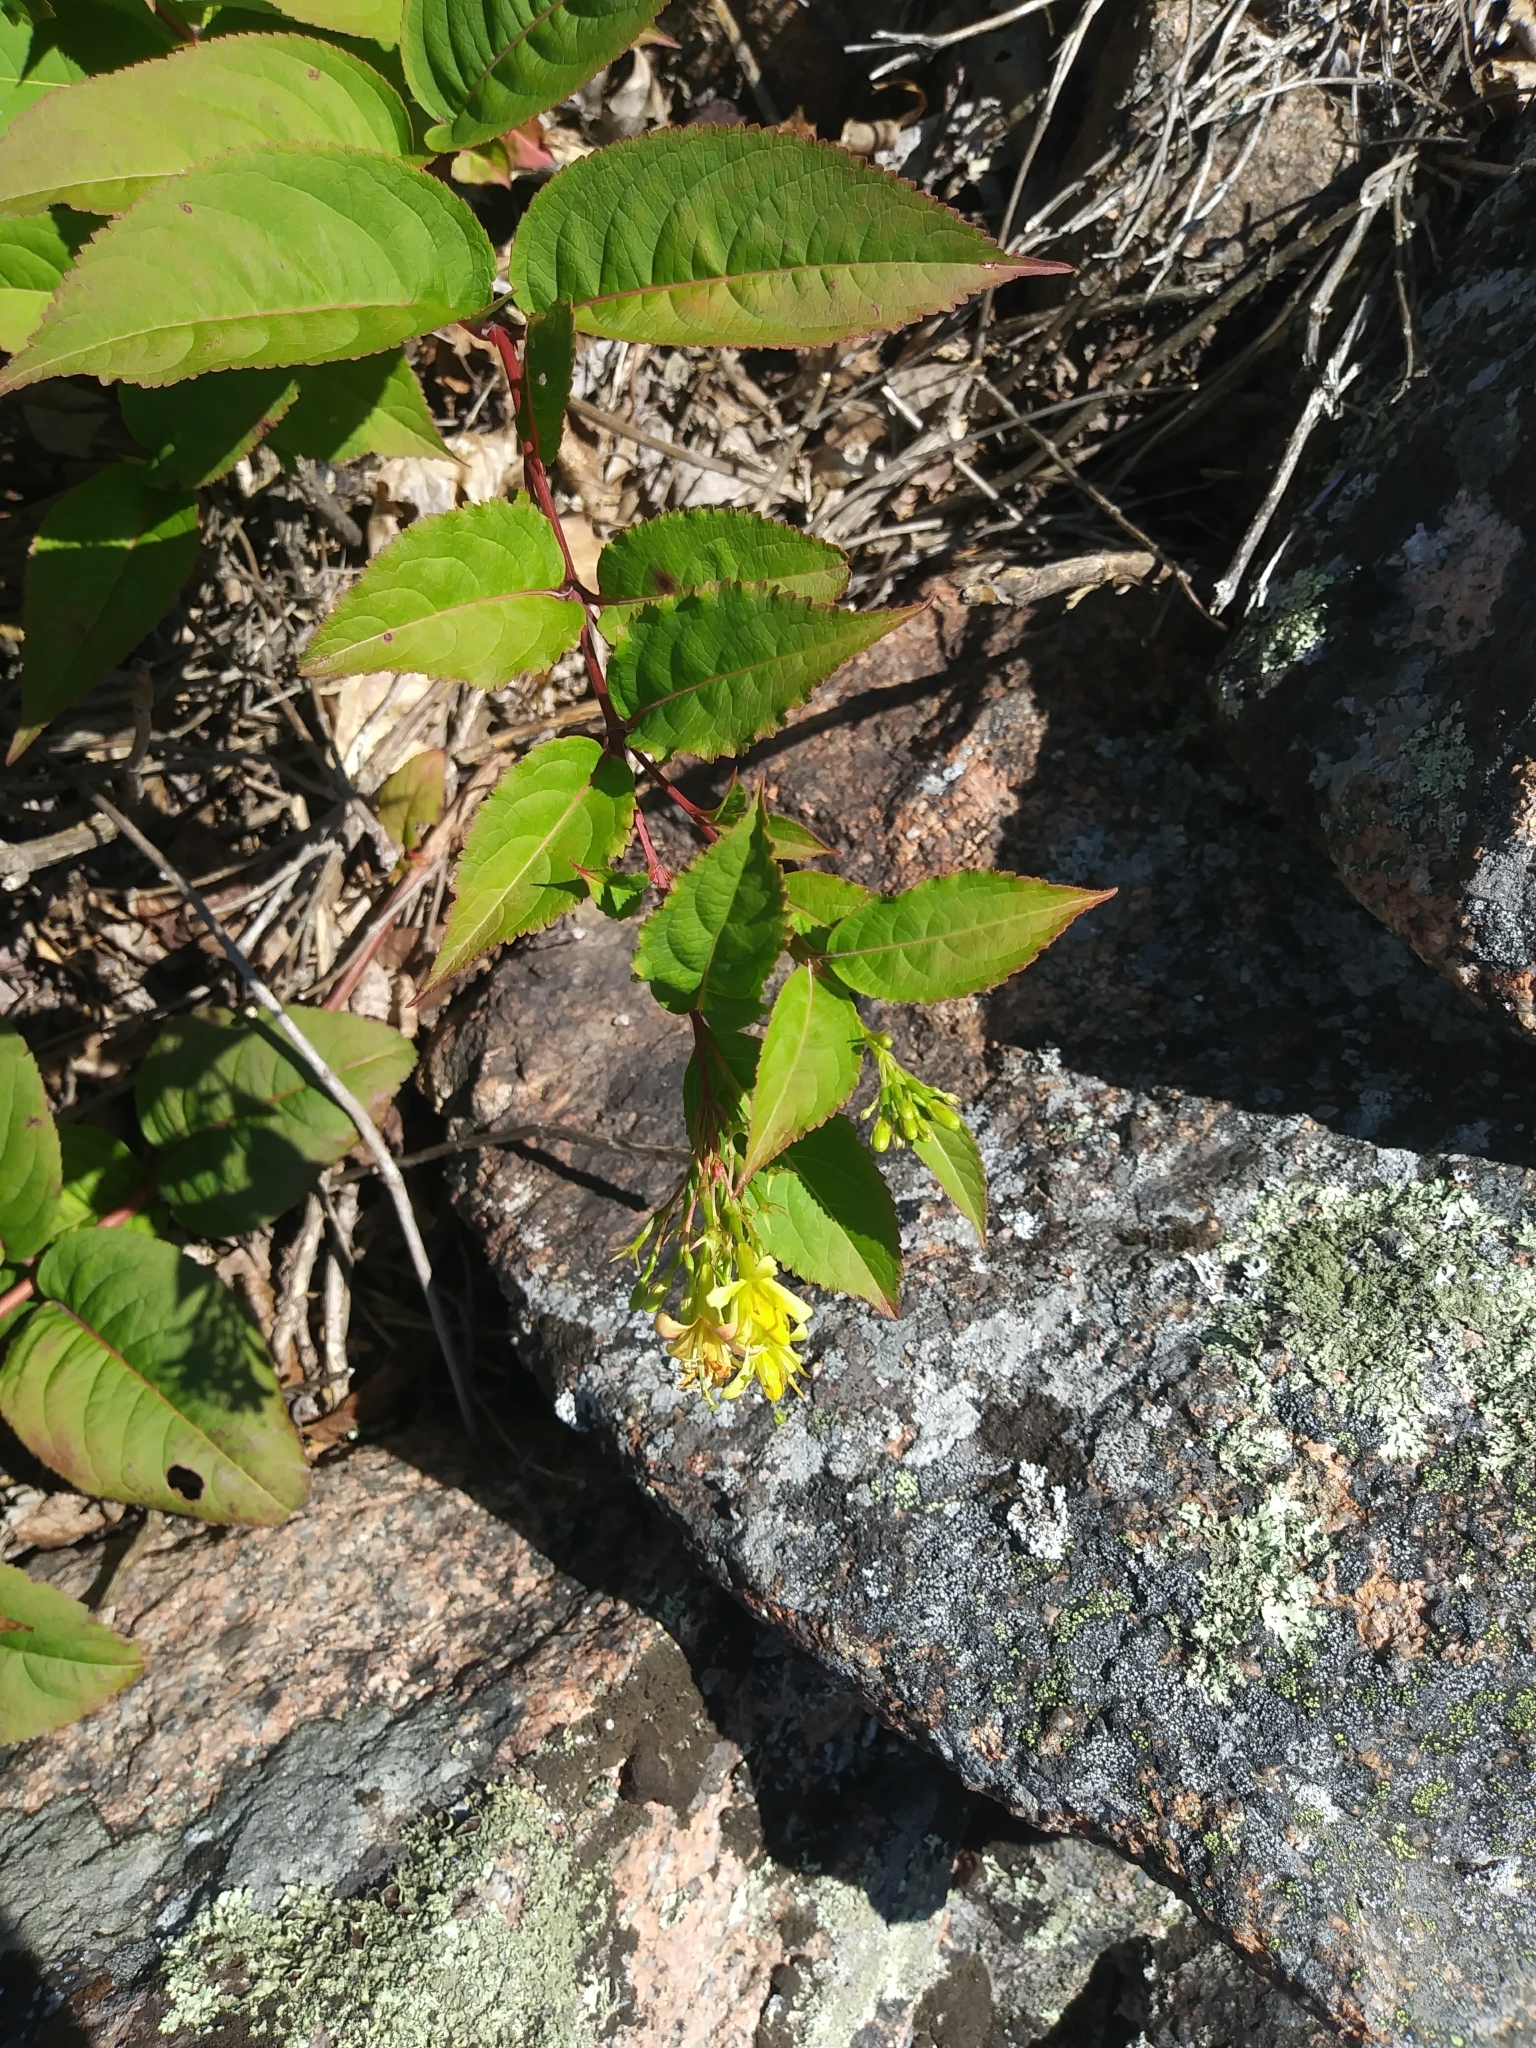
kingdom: Plantae
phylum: Tracheophyta
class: Magnoliopsida
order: Dipsacales
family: Caprifoliaceae
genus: Diervilla
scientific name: Diervilla lonicera
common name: Bush-honeysuckle
